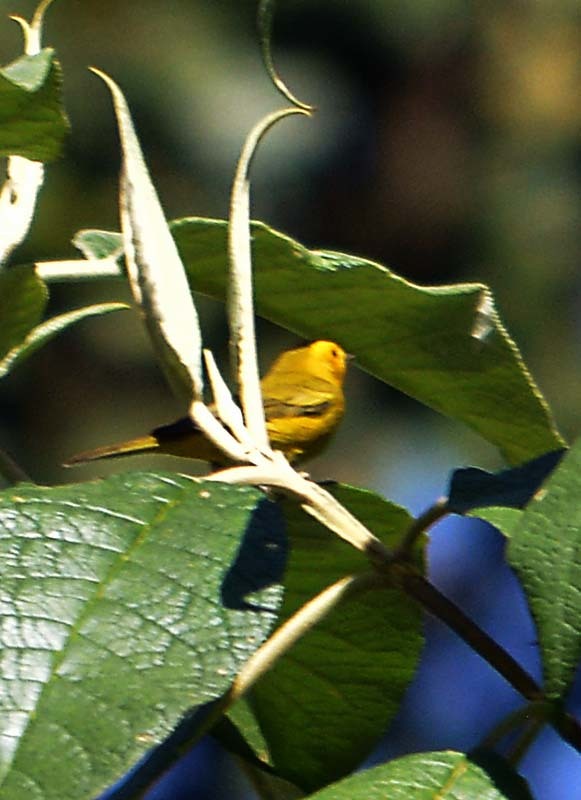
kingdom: Animalia
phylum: Chordata
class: Aves
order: Passeriformes
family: Parulidae
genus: Cardellina
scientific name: Cardellina pusilla
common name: Wilson's warbler
